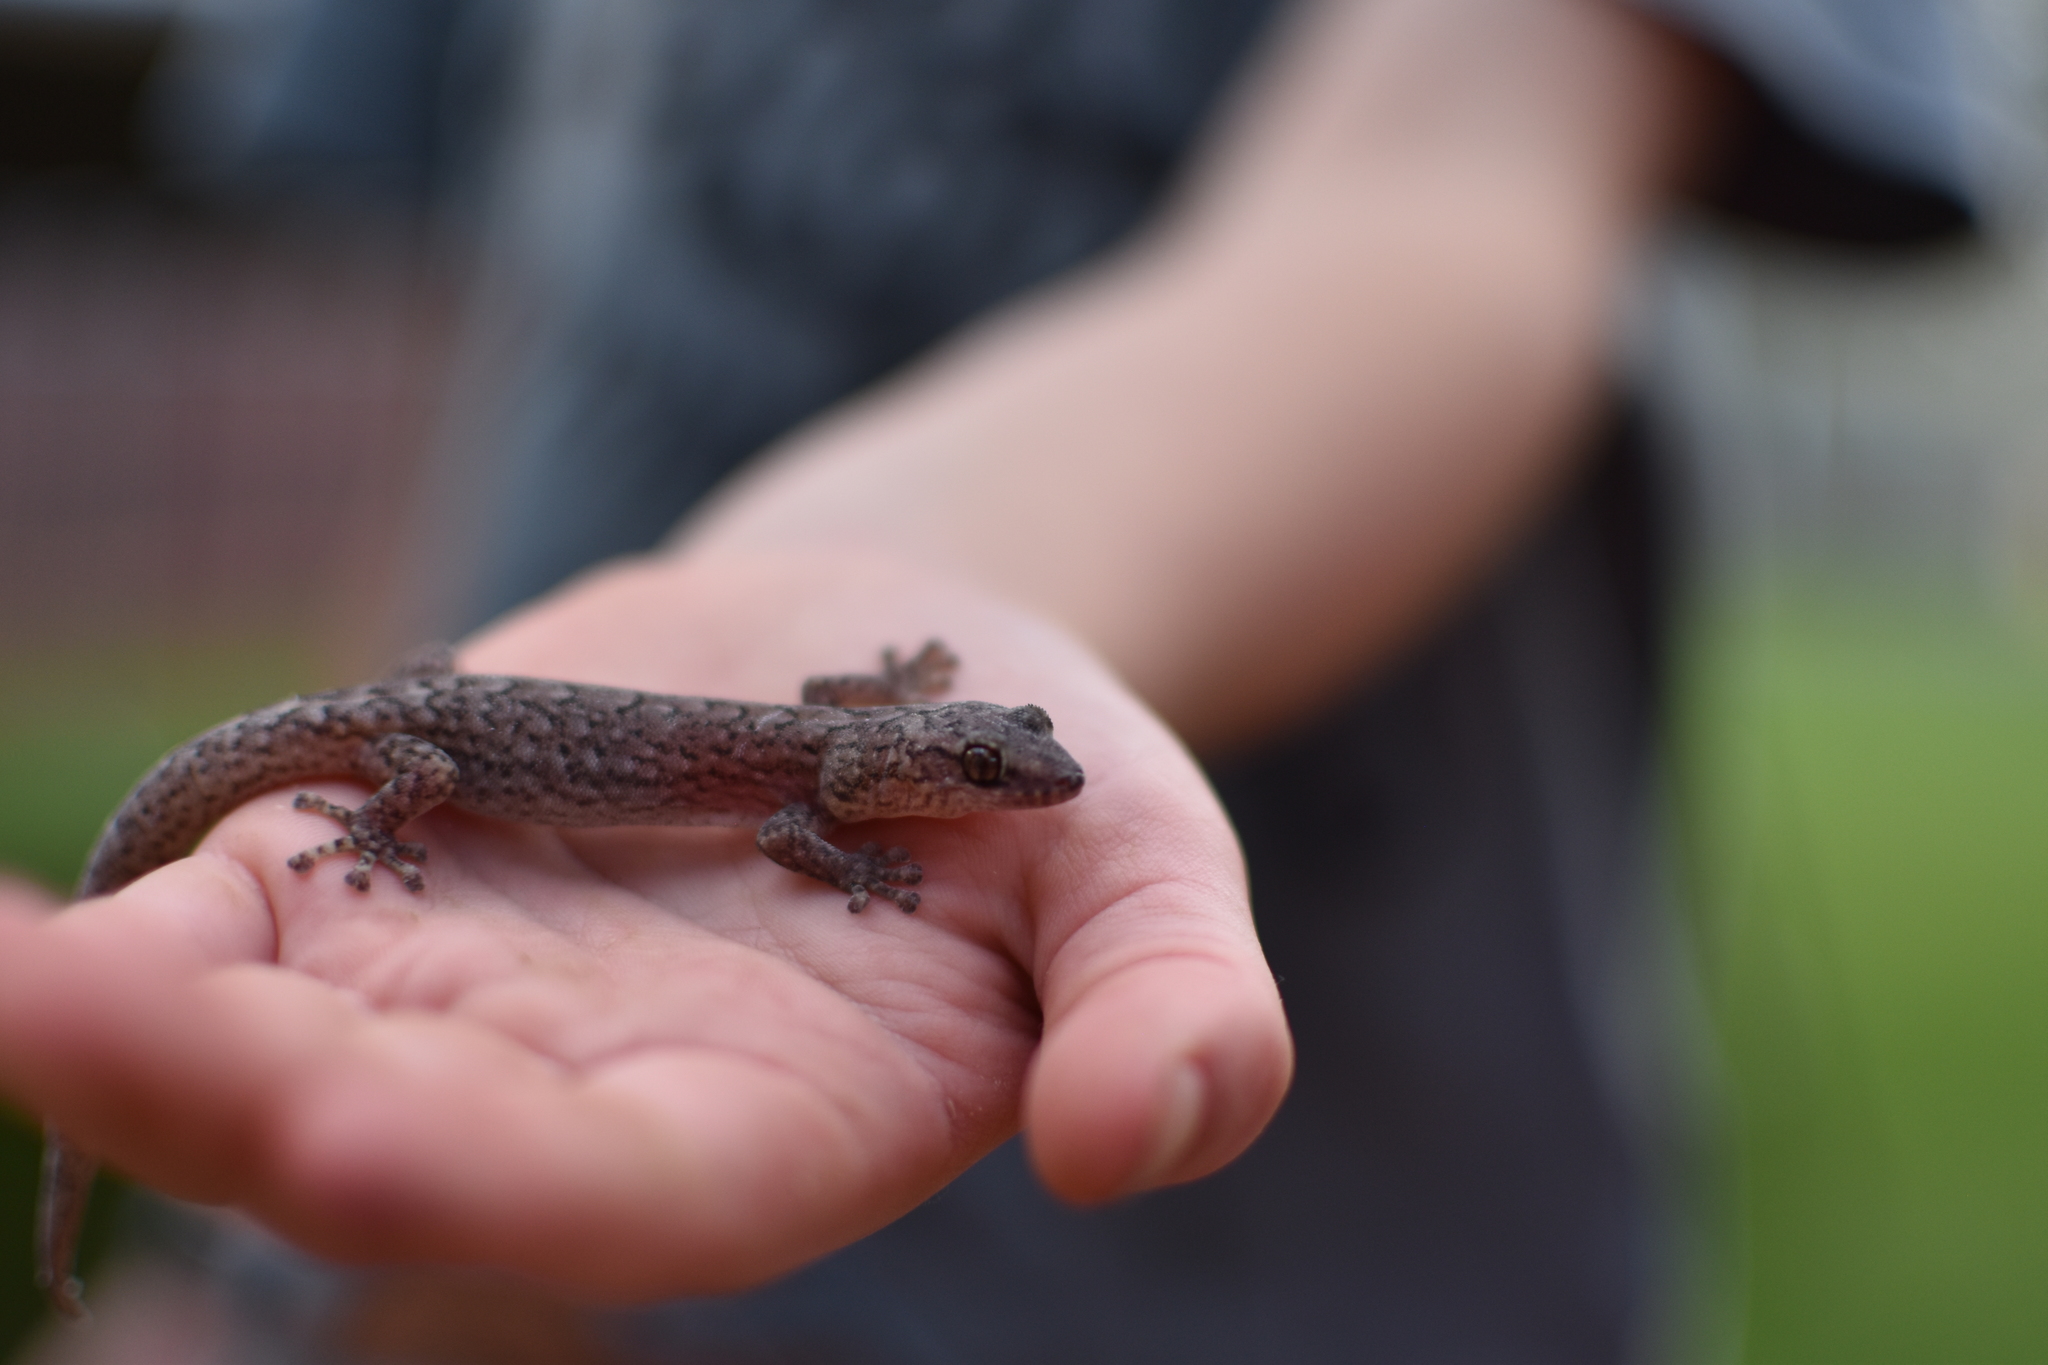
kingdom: Animalia
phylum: Chordata
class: Squamata
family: Gekkonidae
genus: Christinus
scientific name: Christinus marmoratus
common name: Marbled gecko
